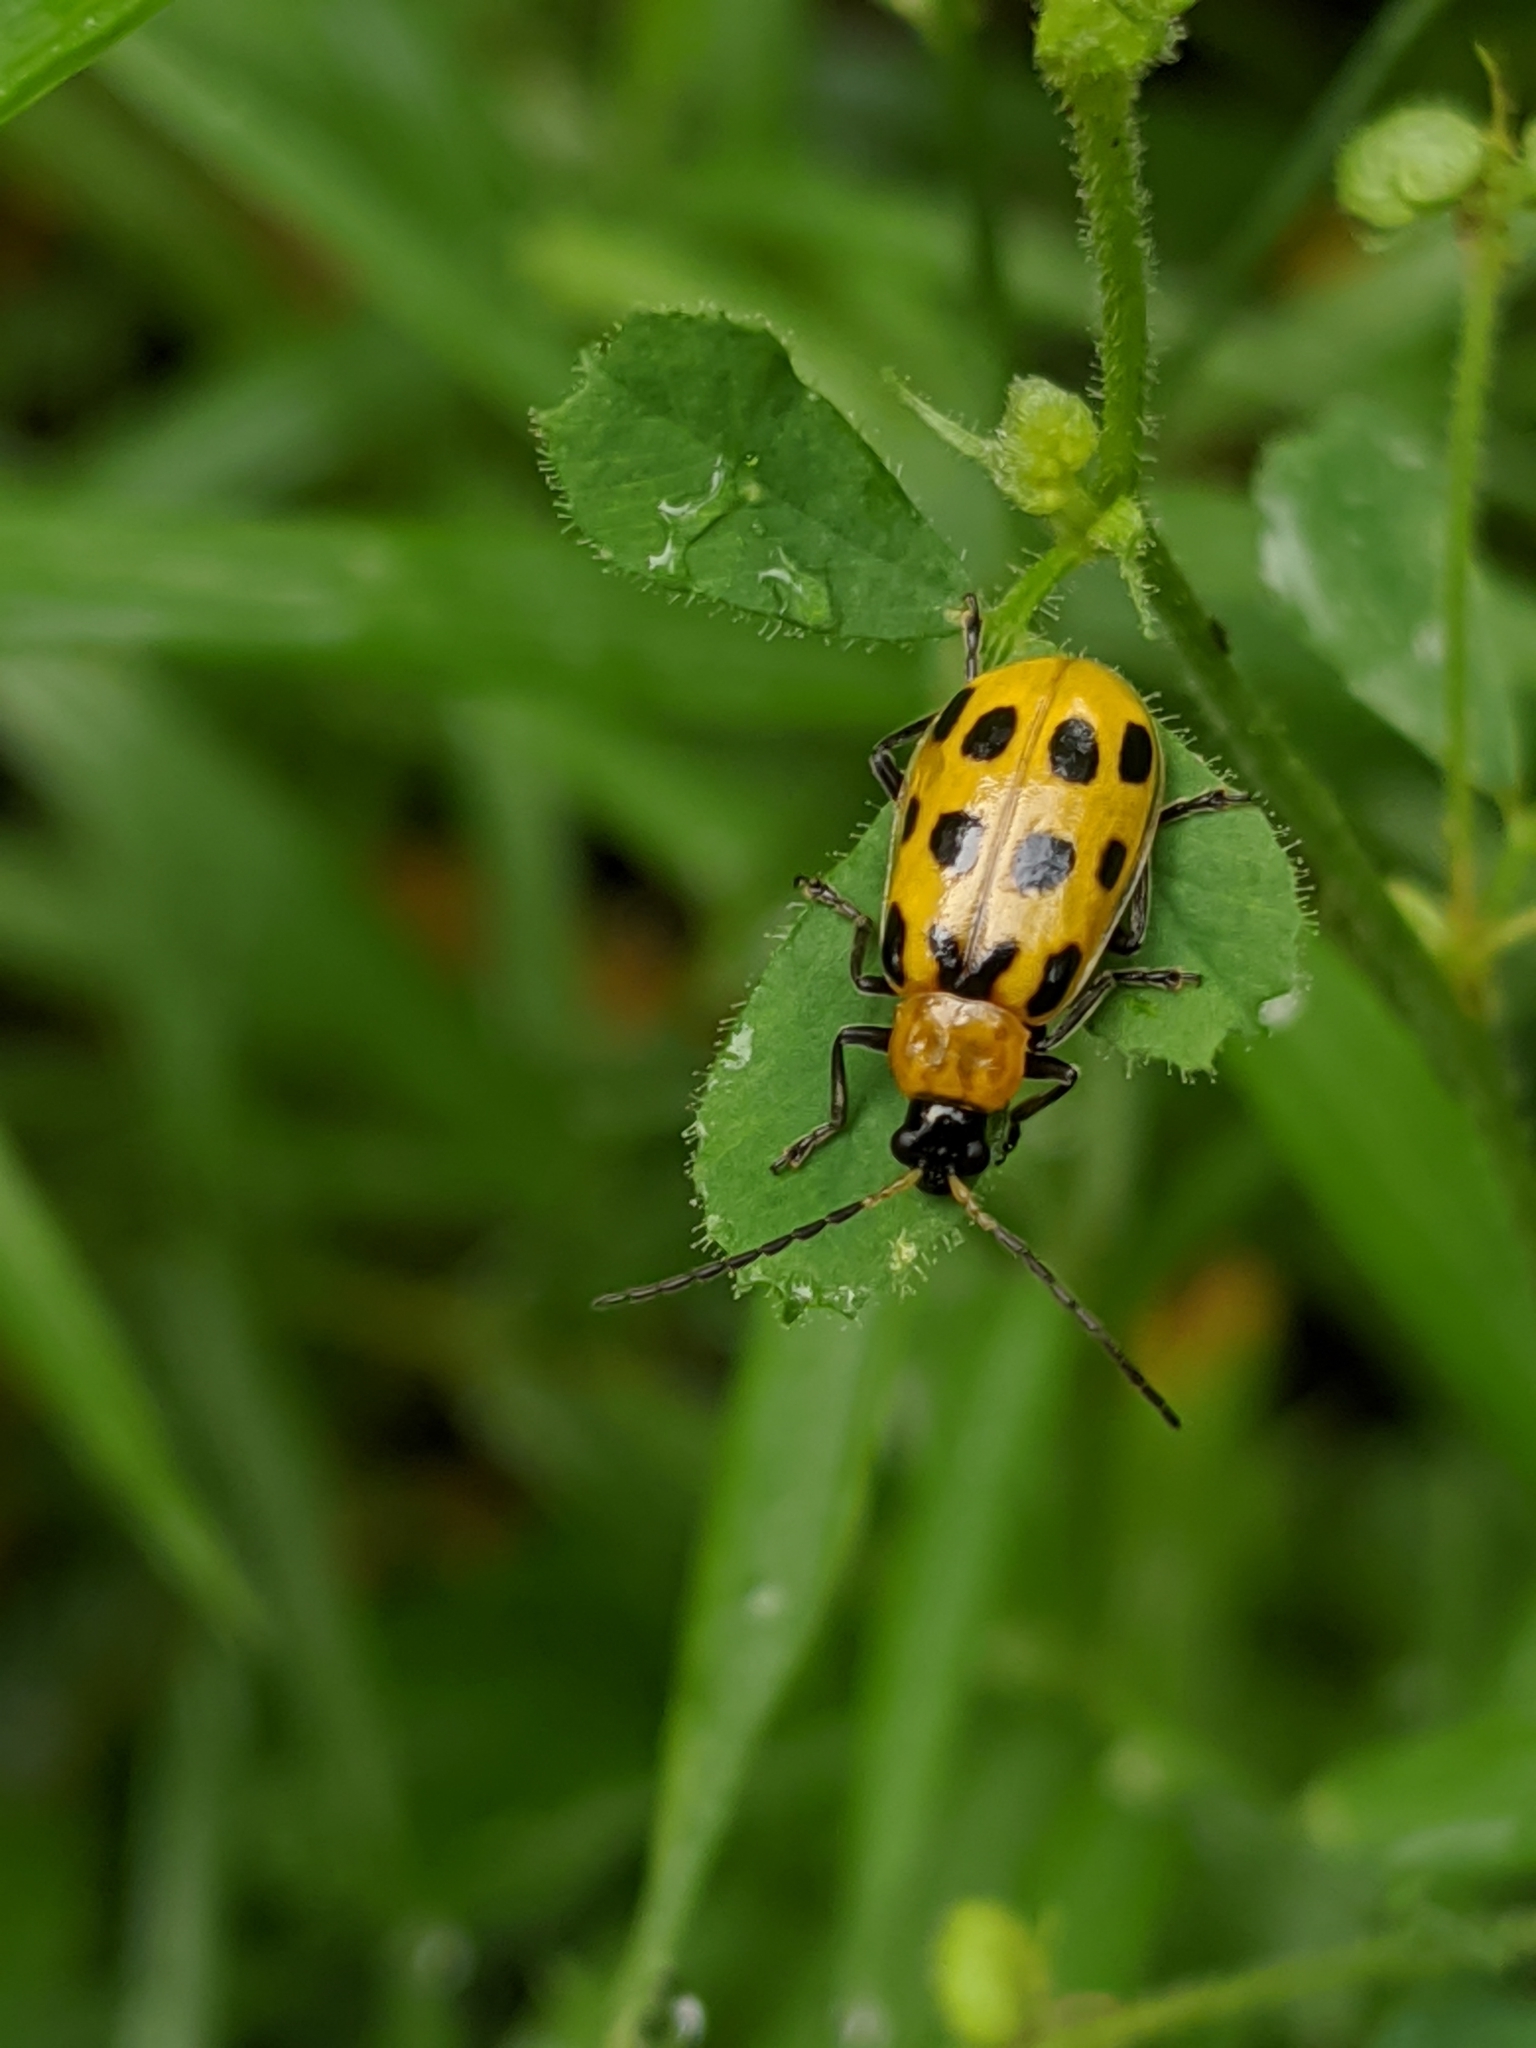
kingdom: Animalia
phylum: Arthropoda
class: Insecta
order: Coleoptera
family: Chrysomelidae
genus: Diabrotica
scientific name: Diabrotica undecimpunctata
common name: Spotted cucumber beetle
